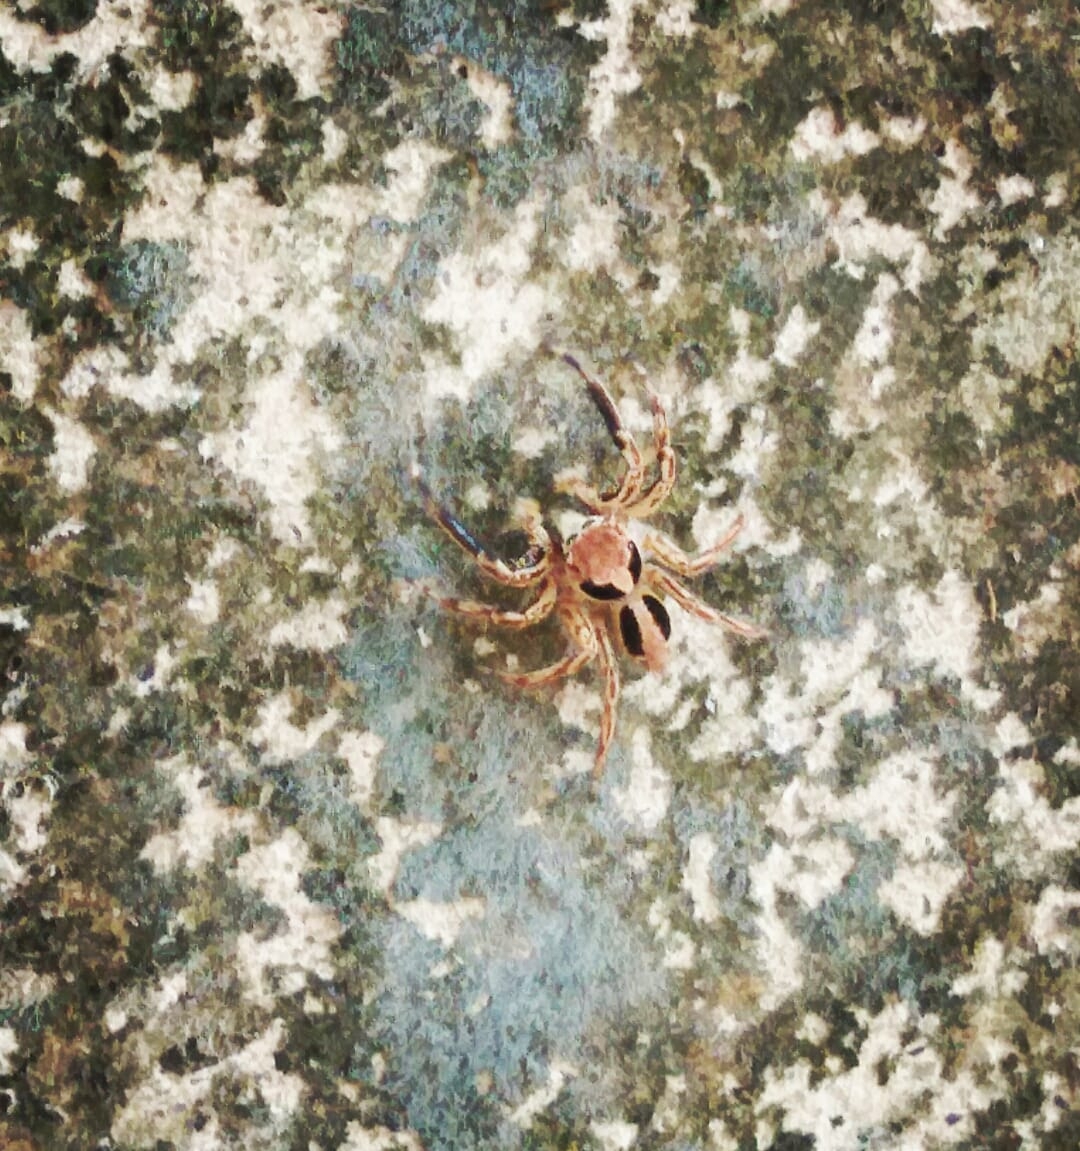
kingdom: Animalia
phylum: Arthropoda
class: Arachnida
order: Araneae
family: Salticidae
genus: Plexippus
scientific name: Plexippus petersi
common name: Jumping spider
